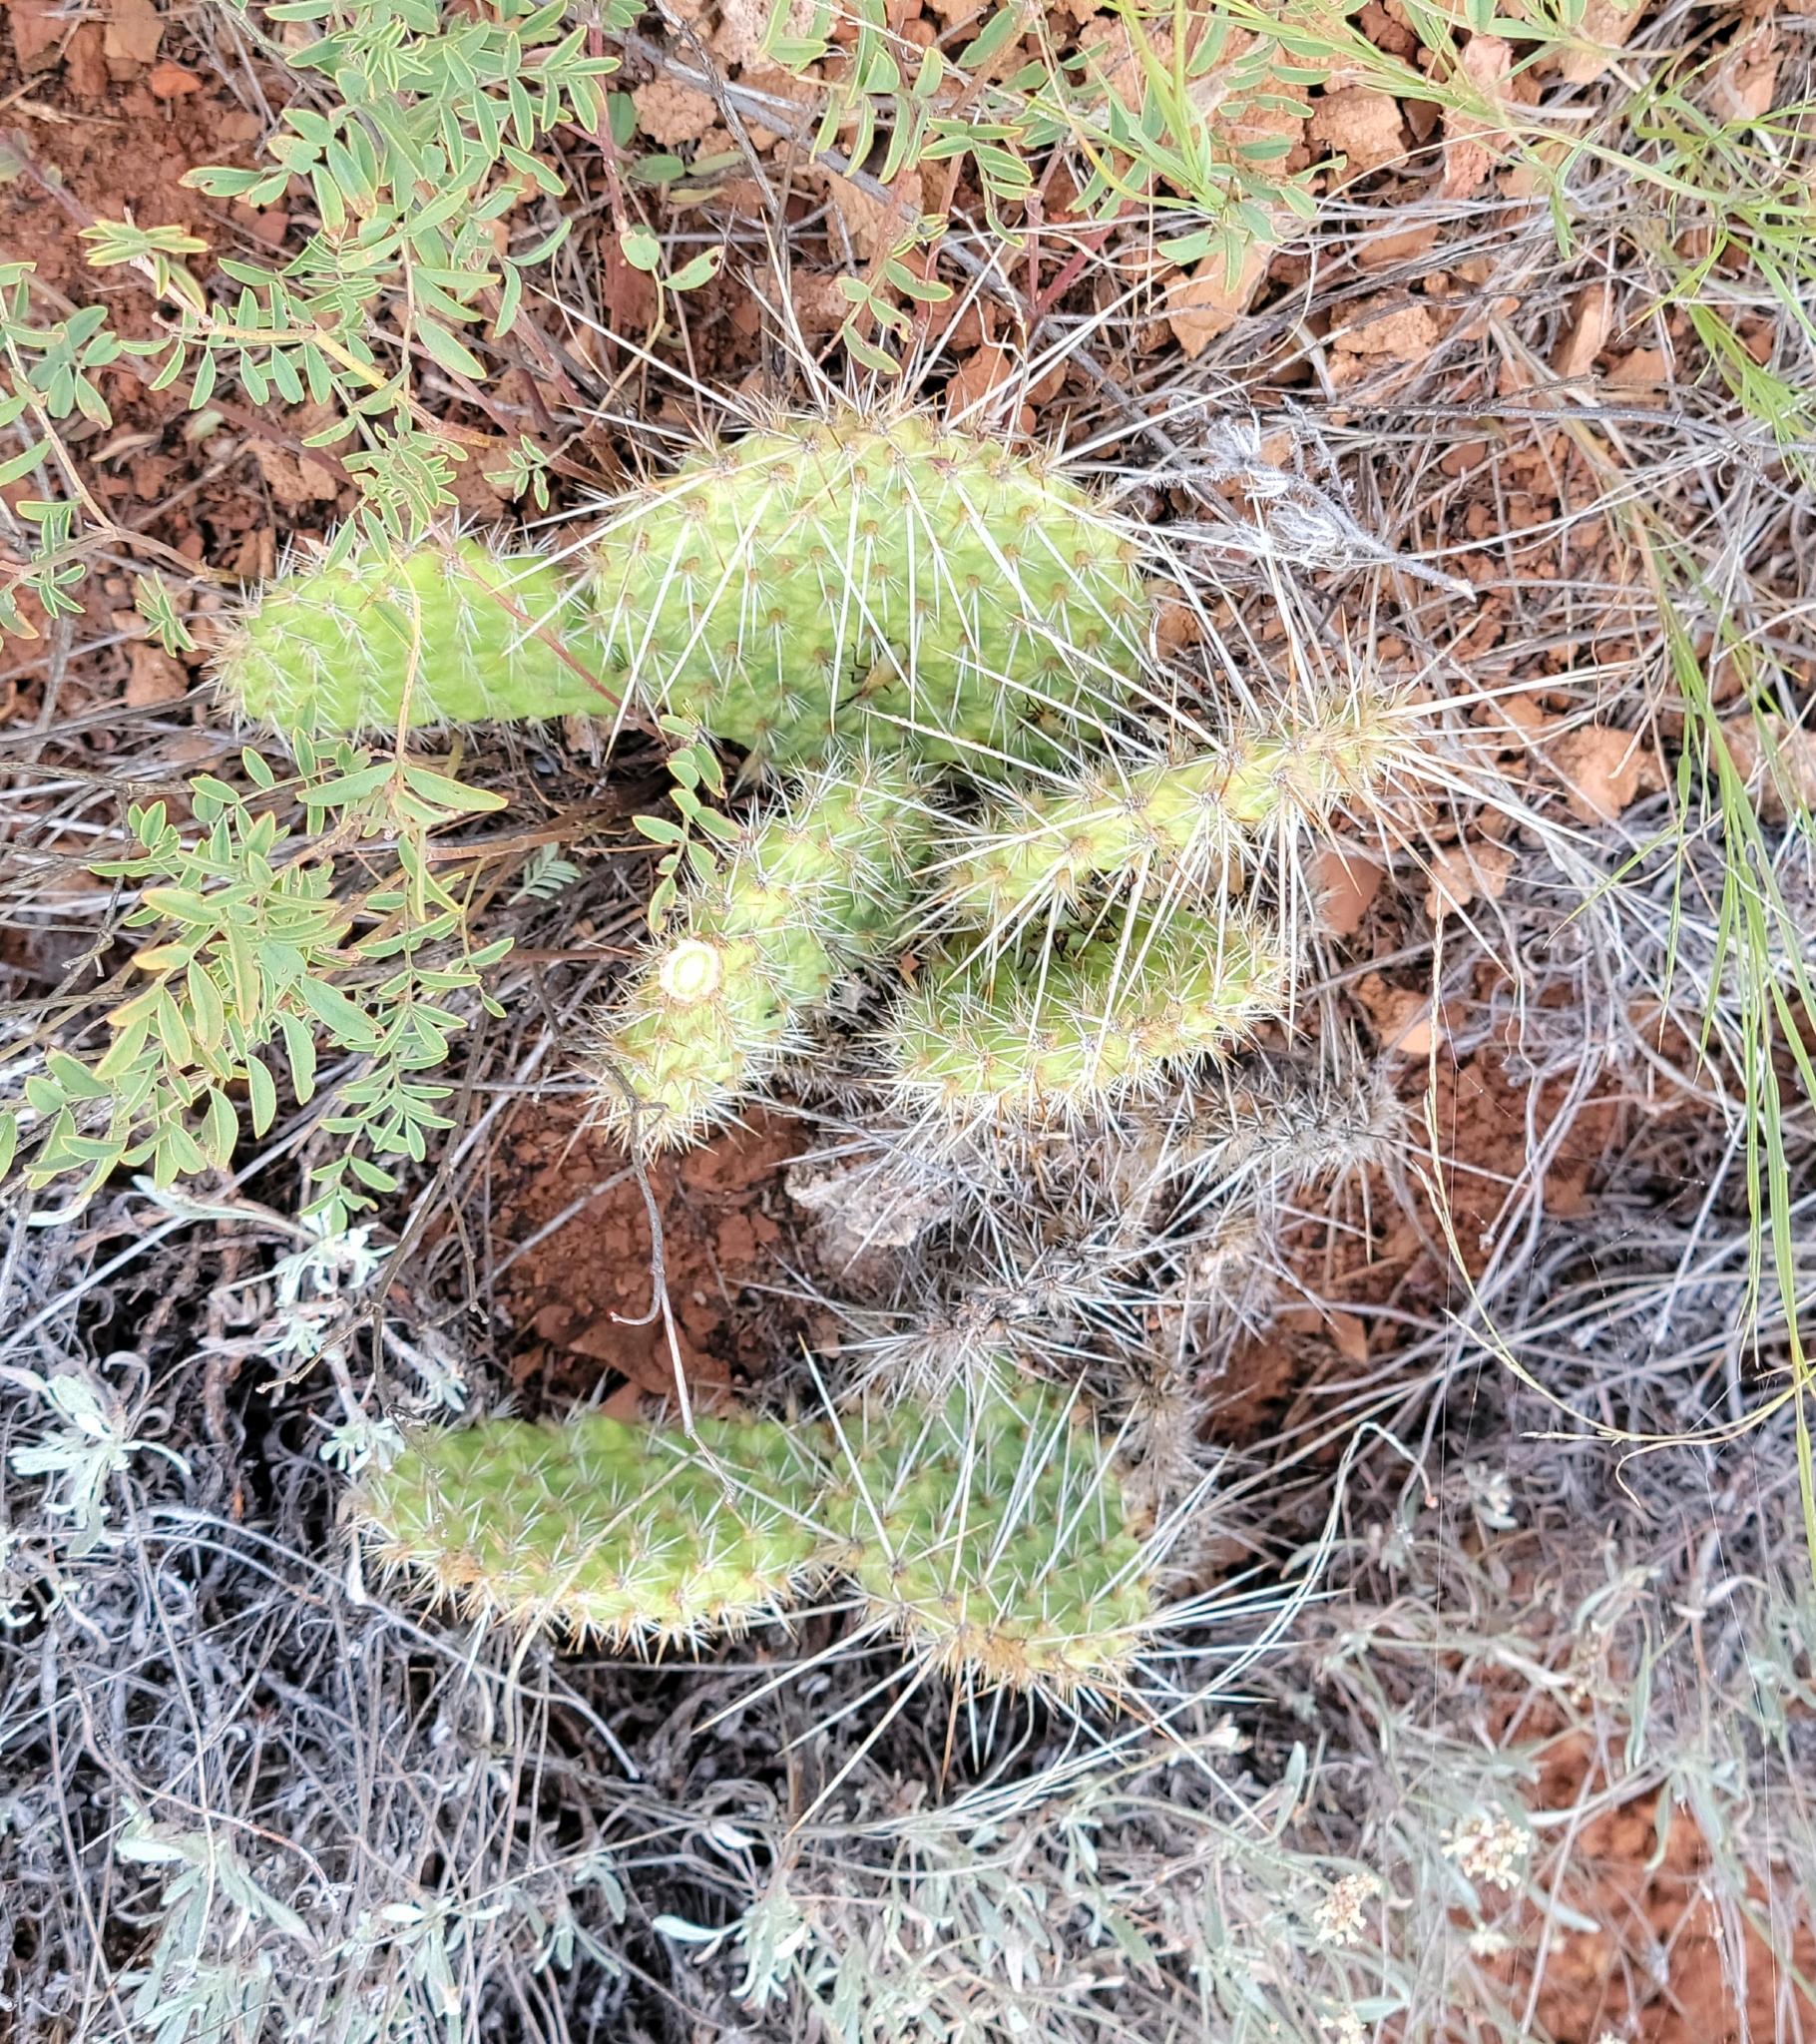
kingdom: Plantae
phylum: Tracheophyta
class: Magnoliopsida
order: Caryophyllales
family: Cactaceae
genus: Opuntia
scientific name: Opuntia polyacantha
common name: Plains prickly-pear
